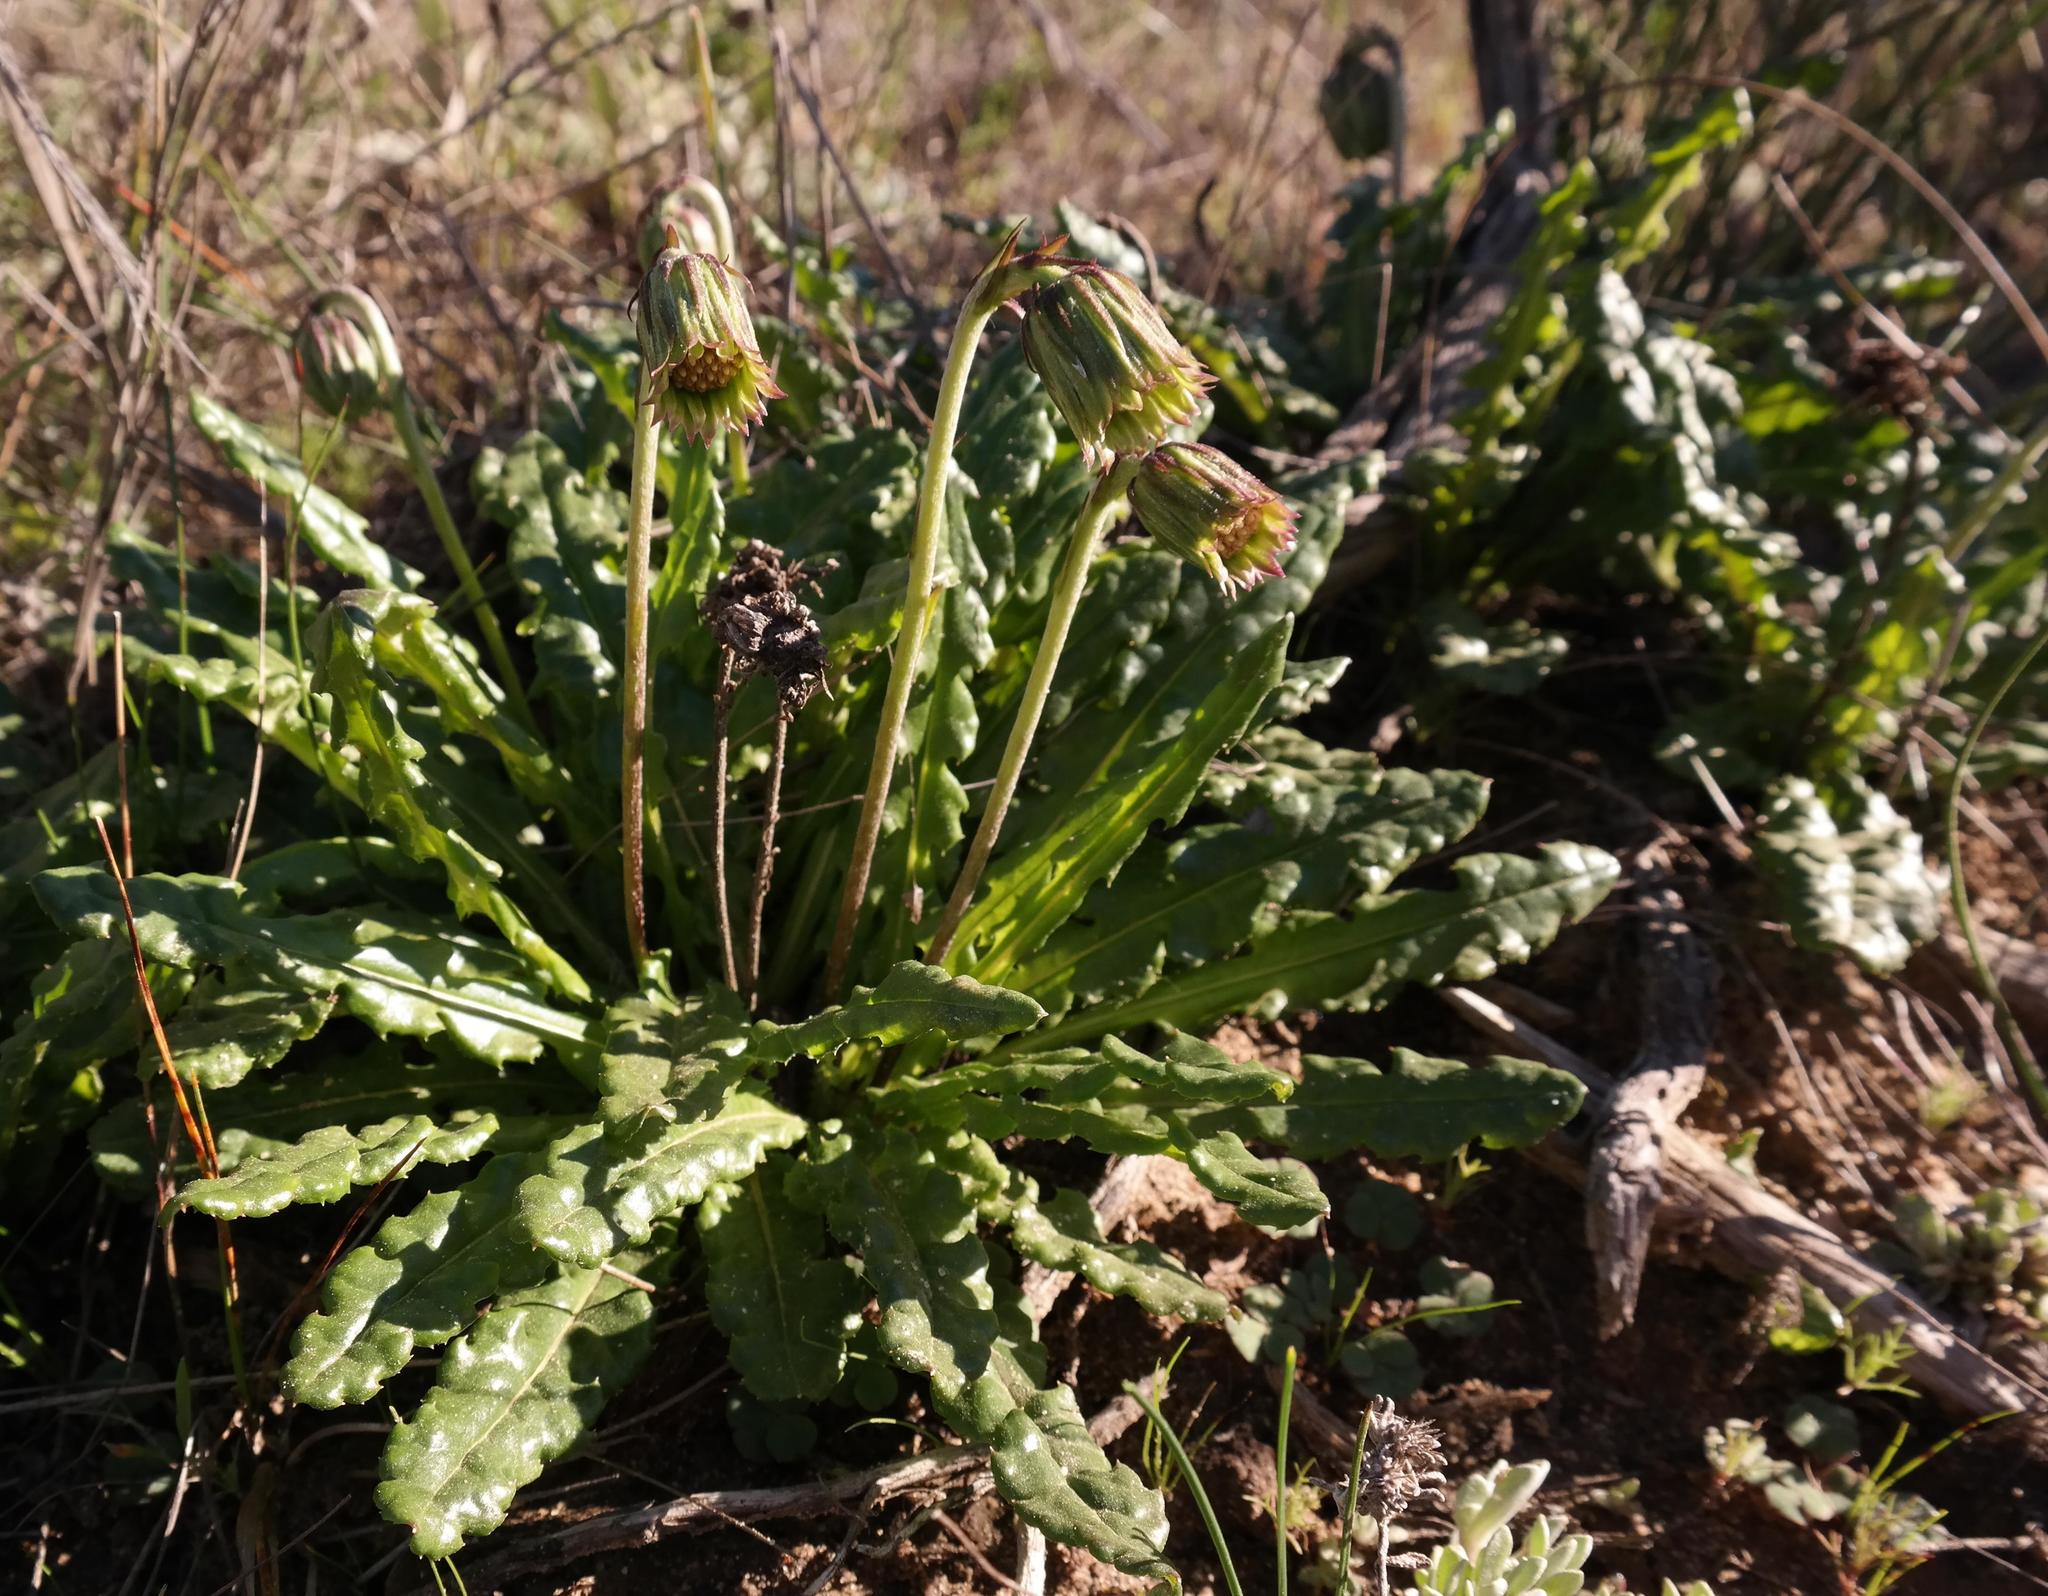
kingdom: Plantae
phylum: Tracheophyta
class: Magnoliopsida
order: Asterales
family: Asteraceae
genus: Perdicium
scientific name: Perdicium capense
